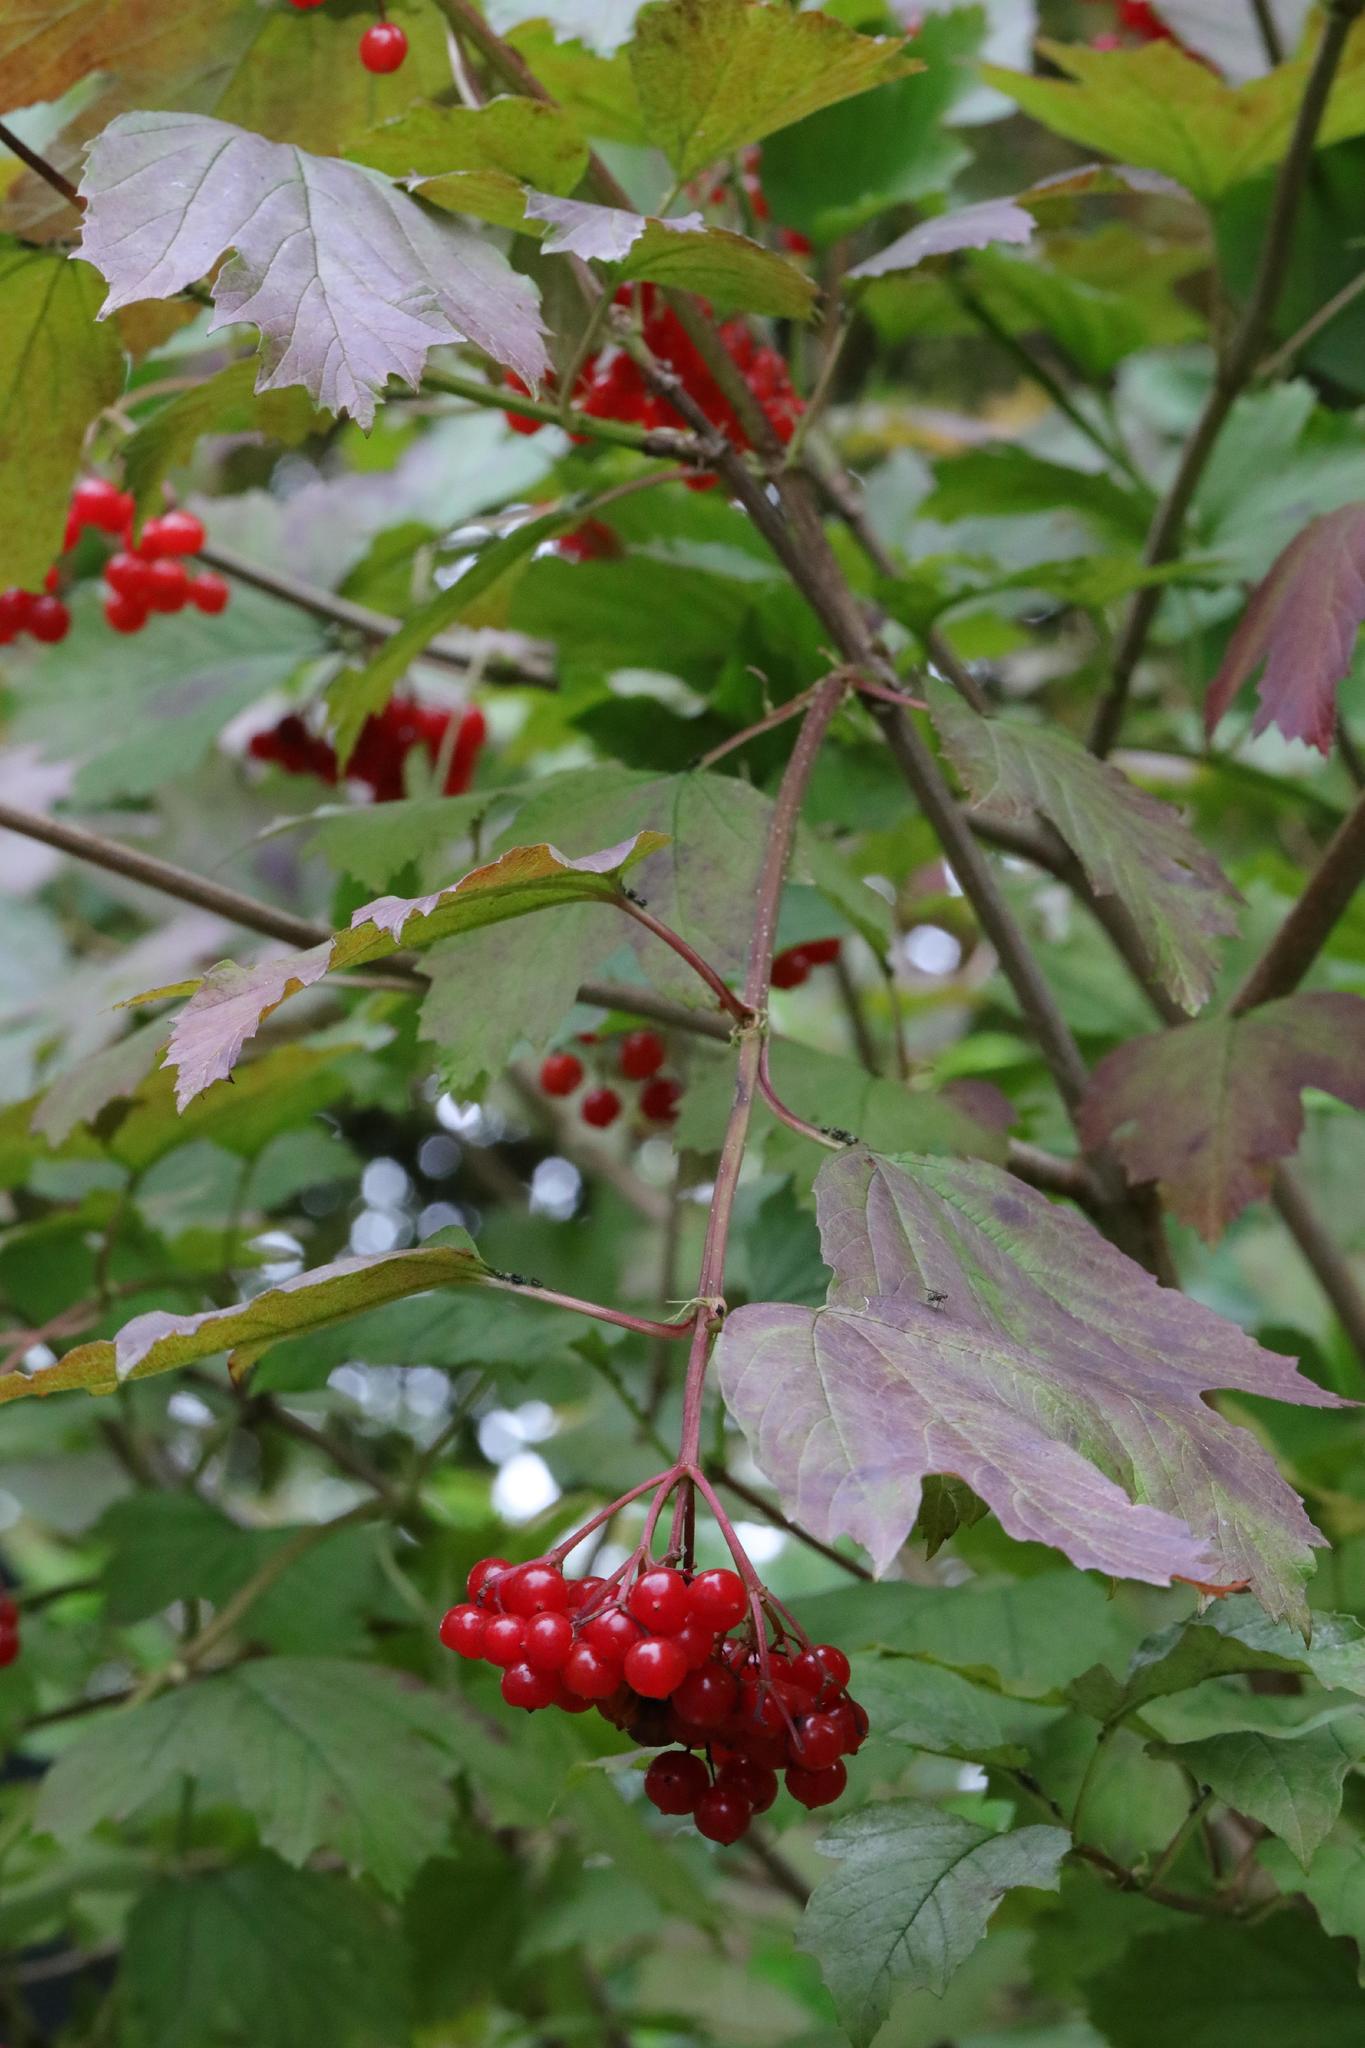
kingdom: Plantae
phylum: Tracheophyta
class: Magnoliopsida
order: Dipsacales
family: Viburnaceae
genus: Viburnum
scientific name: Viburnum opulus
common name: Guelder-rose
